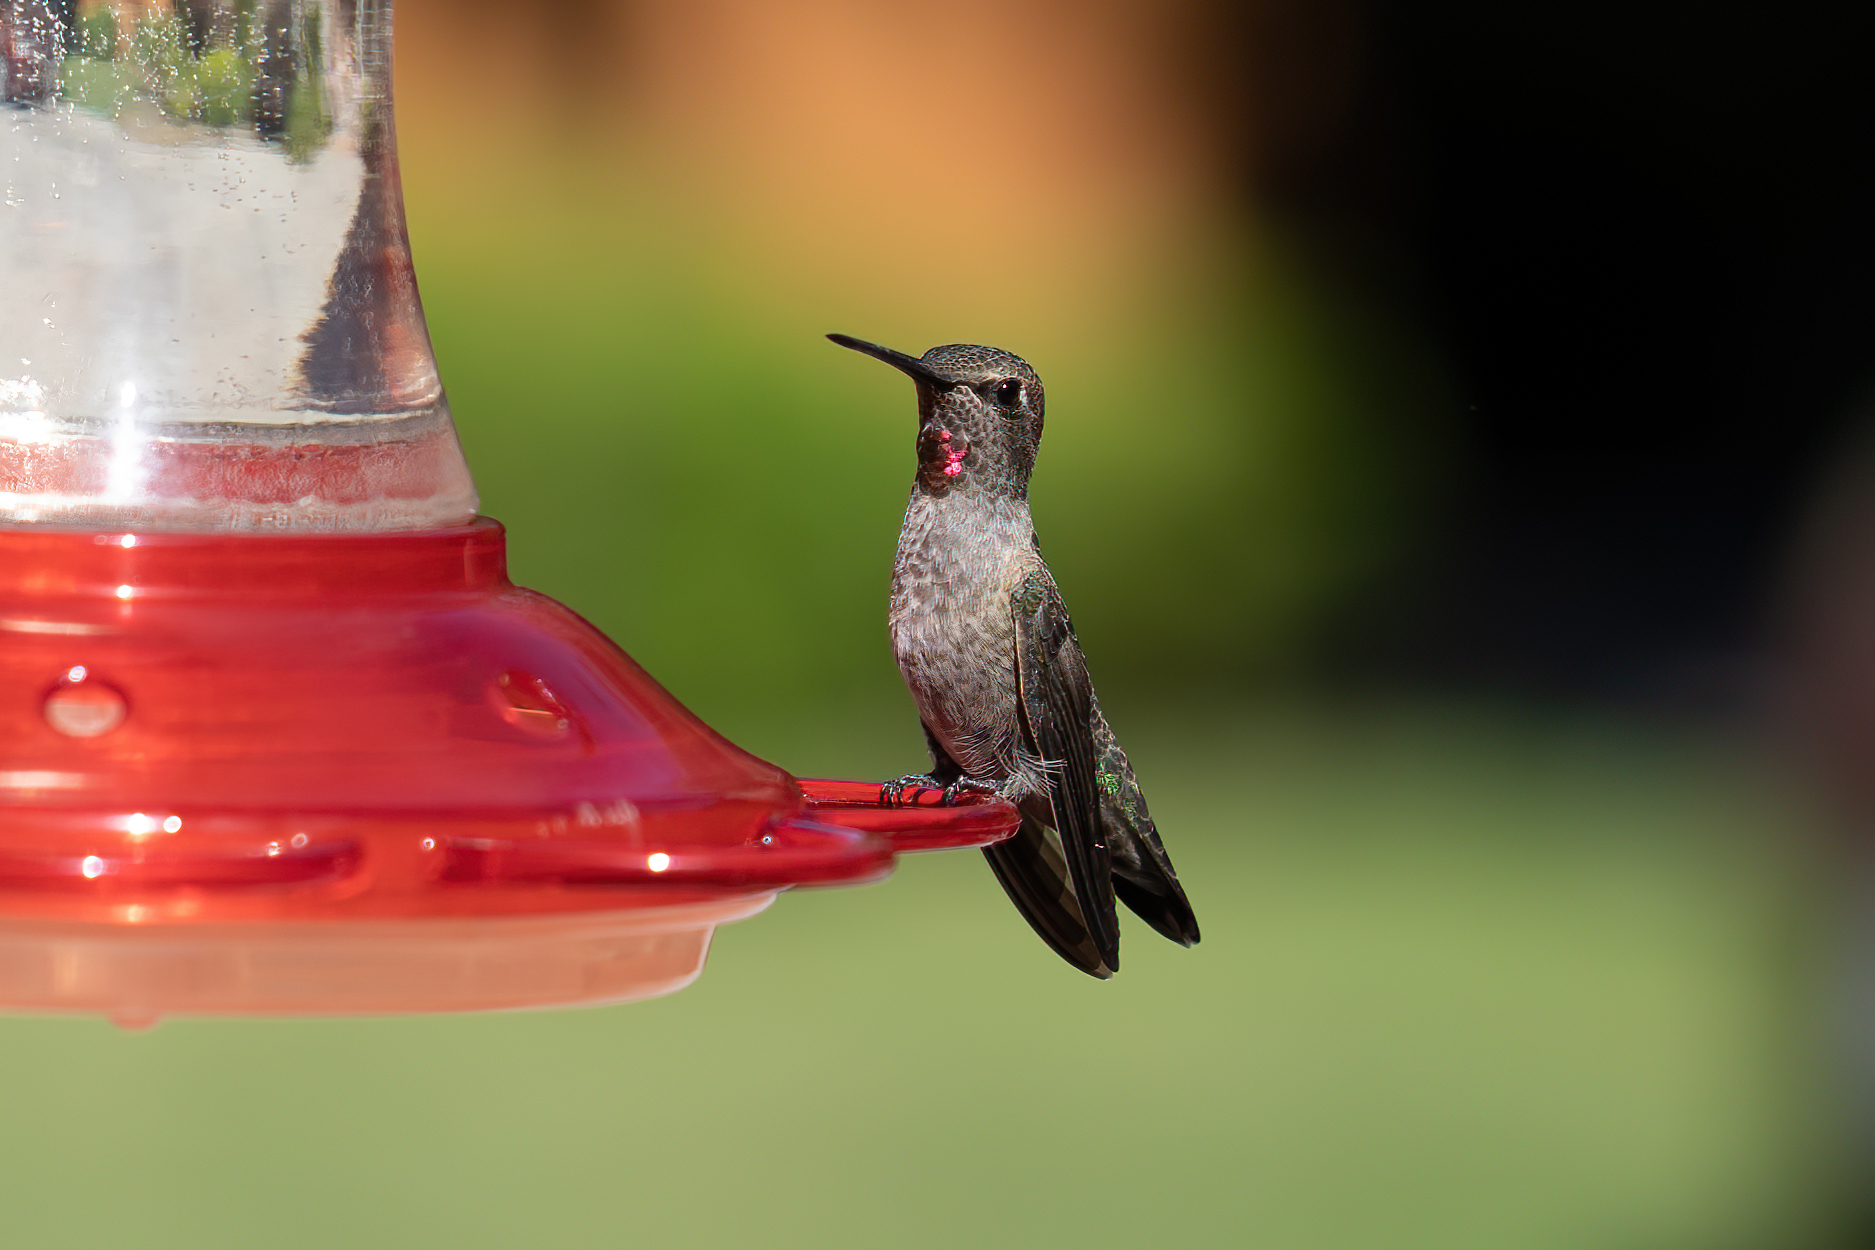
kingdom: Animalia
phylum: Chordata
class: Aves
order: Apodiformes
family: Trochilidae
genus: Calypte
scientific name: Calypte anna
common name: Anna's hummingbird
